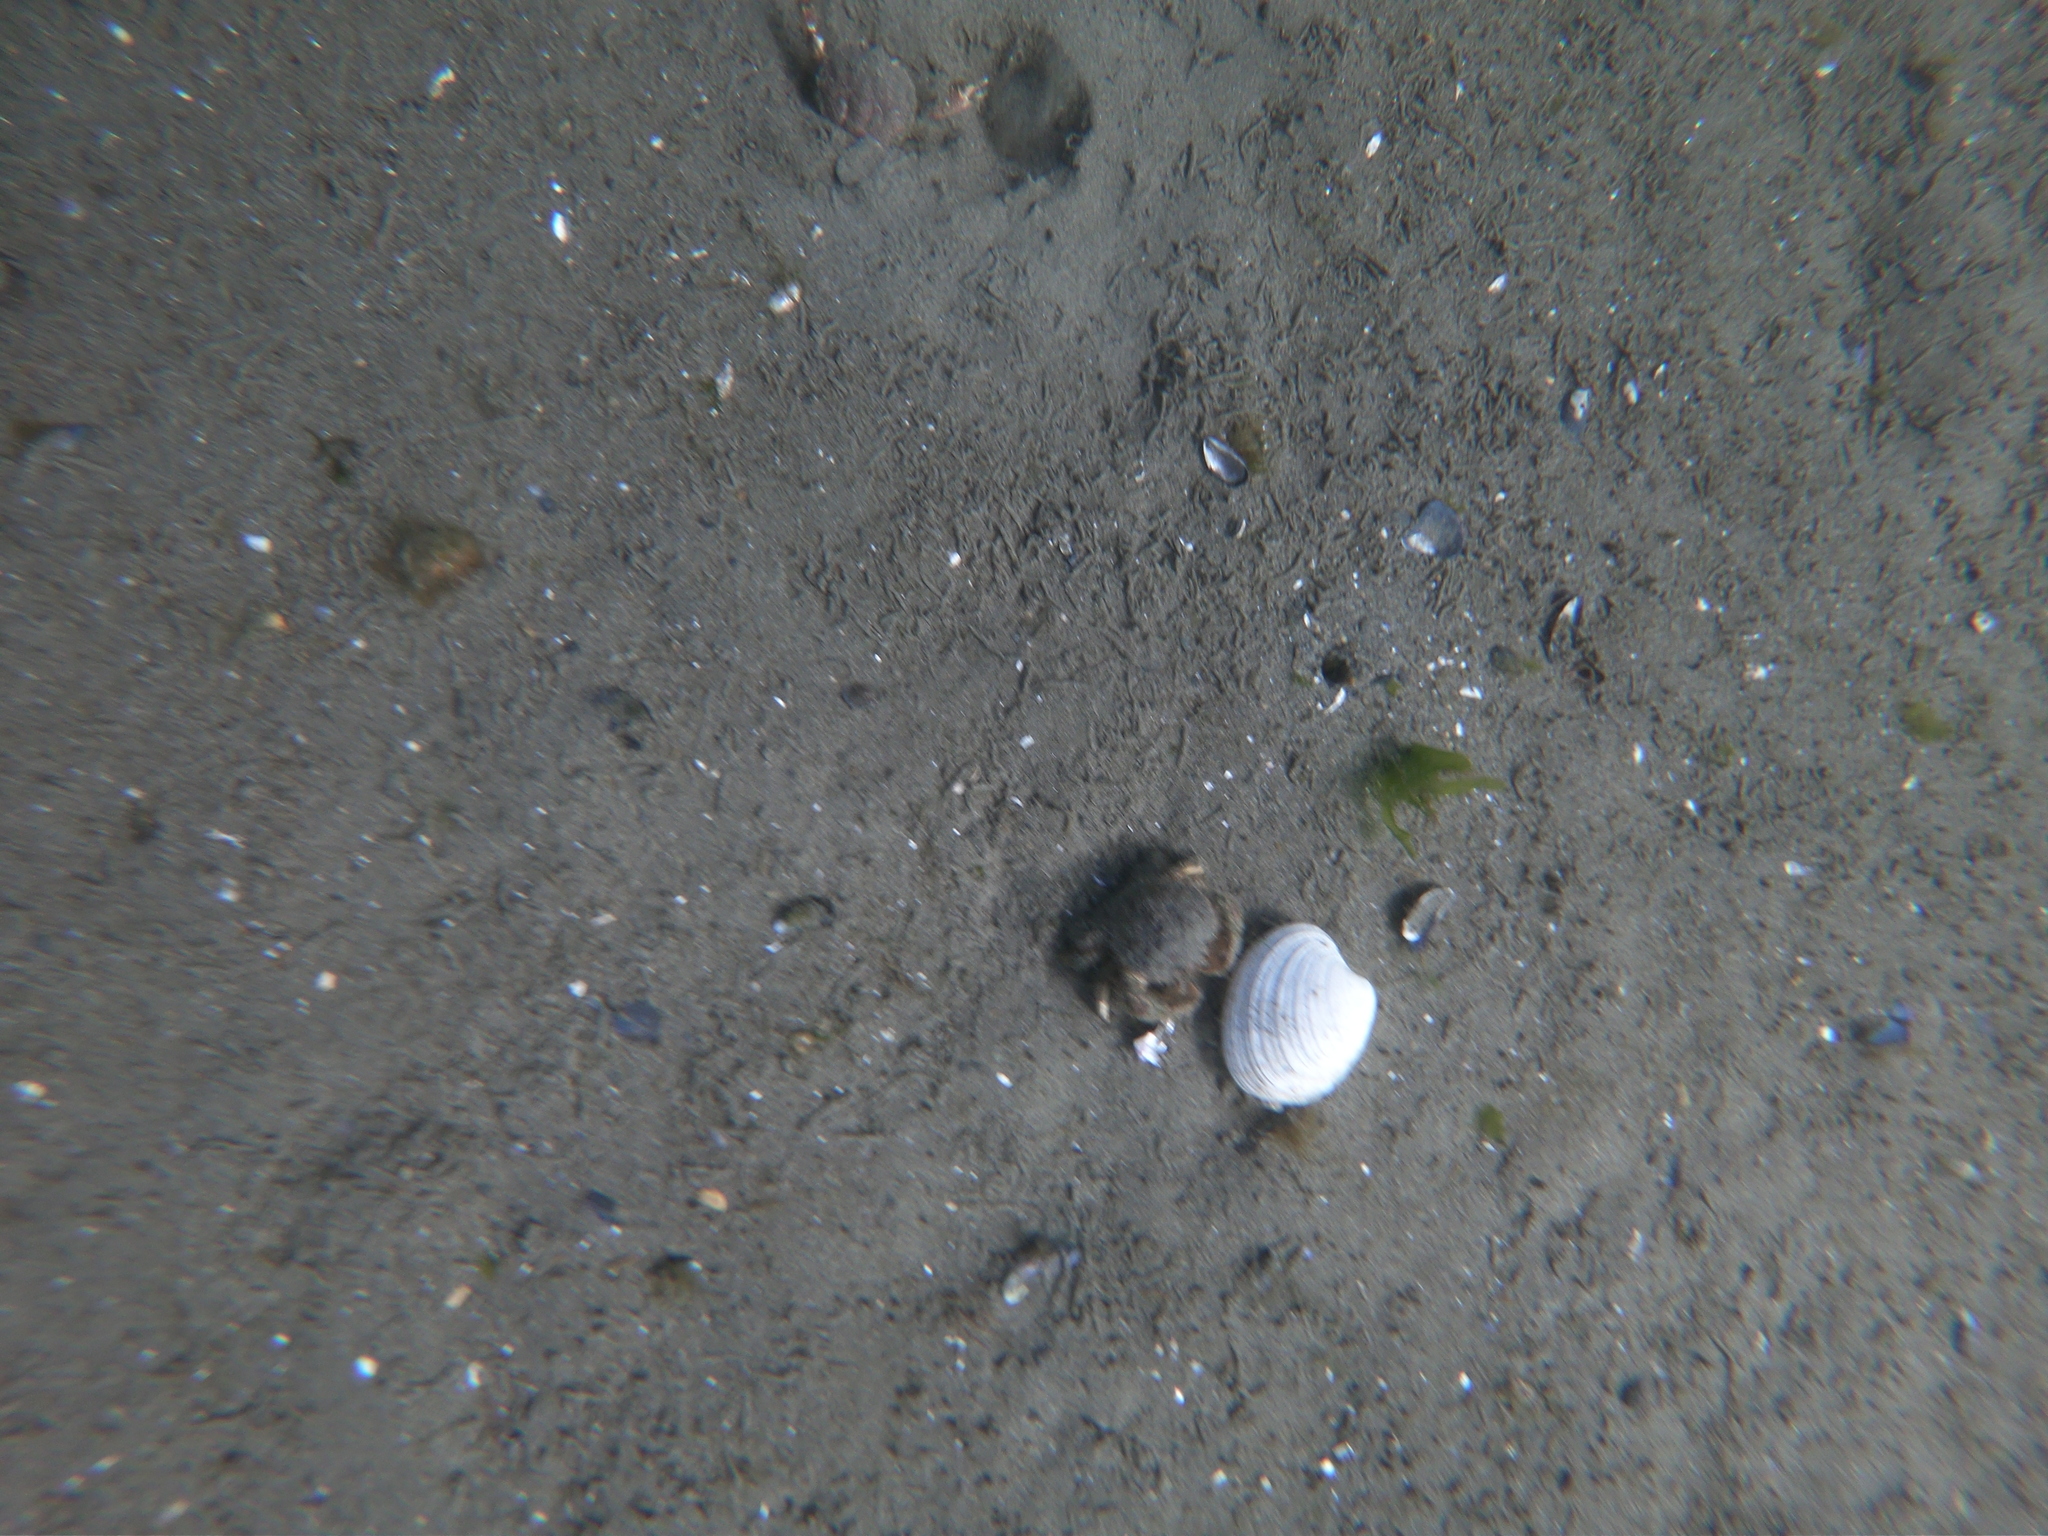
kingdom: Animalia
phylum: Mollusca
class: Bivalvia
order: Venerida
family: Veneridae
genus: Retrotapes
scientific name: Retrotapes exalbidus
